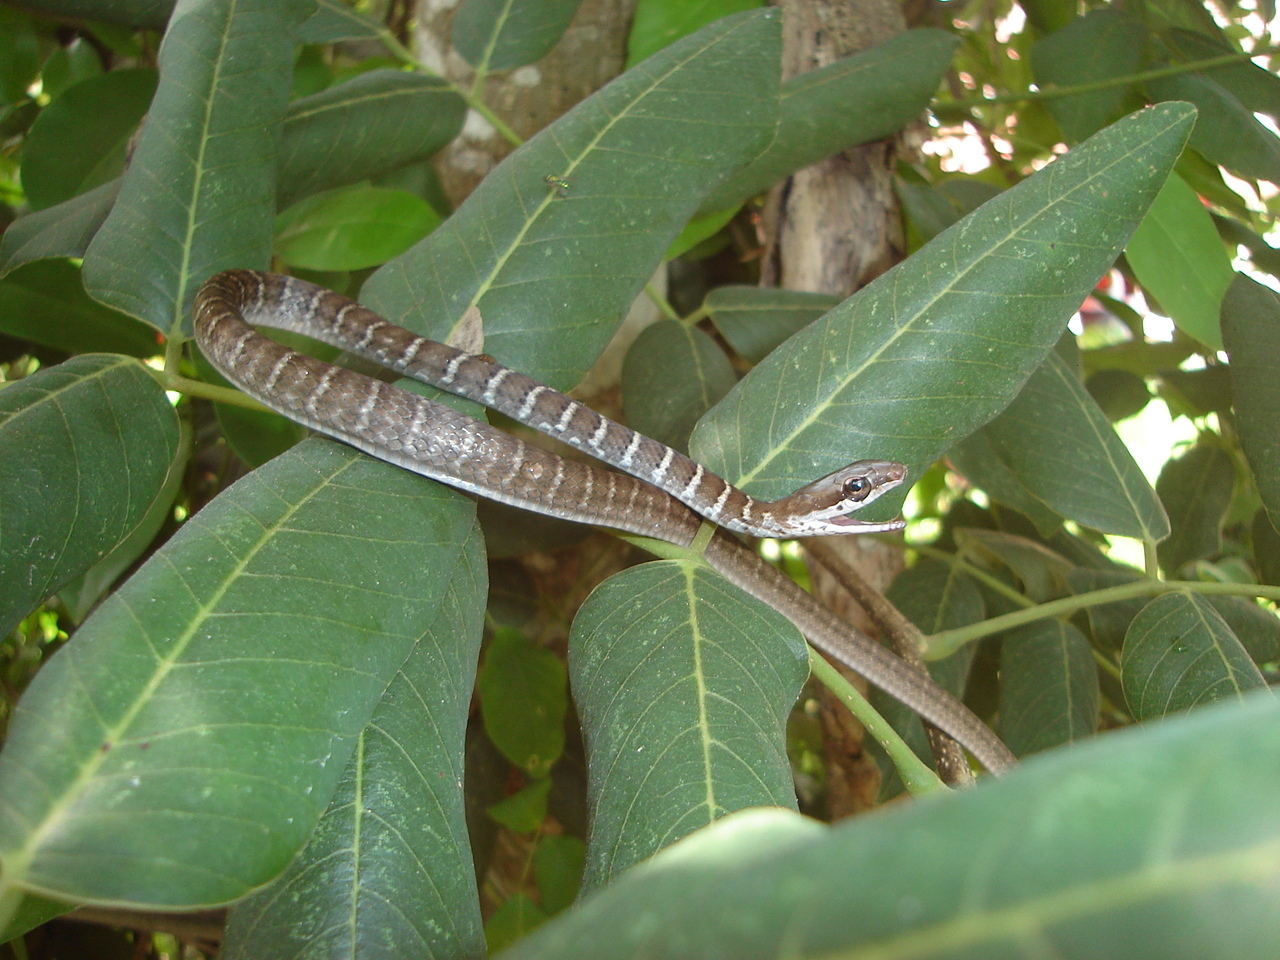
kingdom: Animalia
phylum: Chordata
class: Squamata
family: Colubridae
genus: Mastigodryas
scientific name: Mastigodryas melanolomus
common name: Salmon-bellied racer
